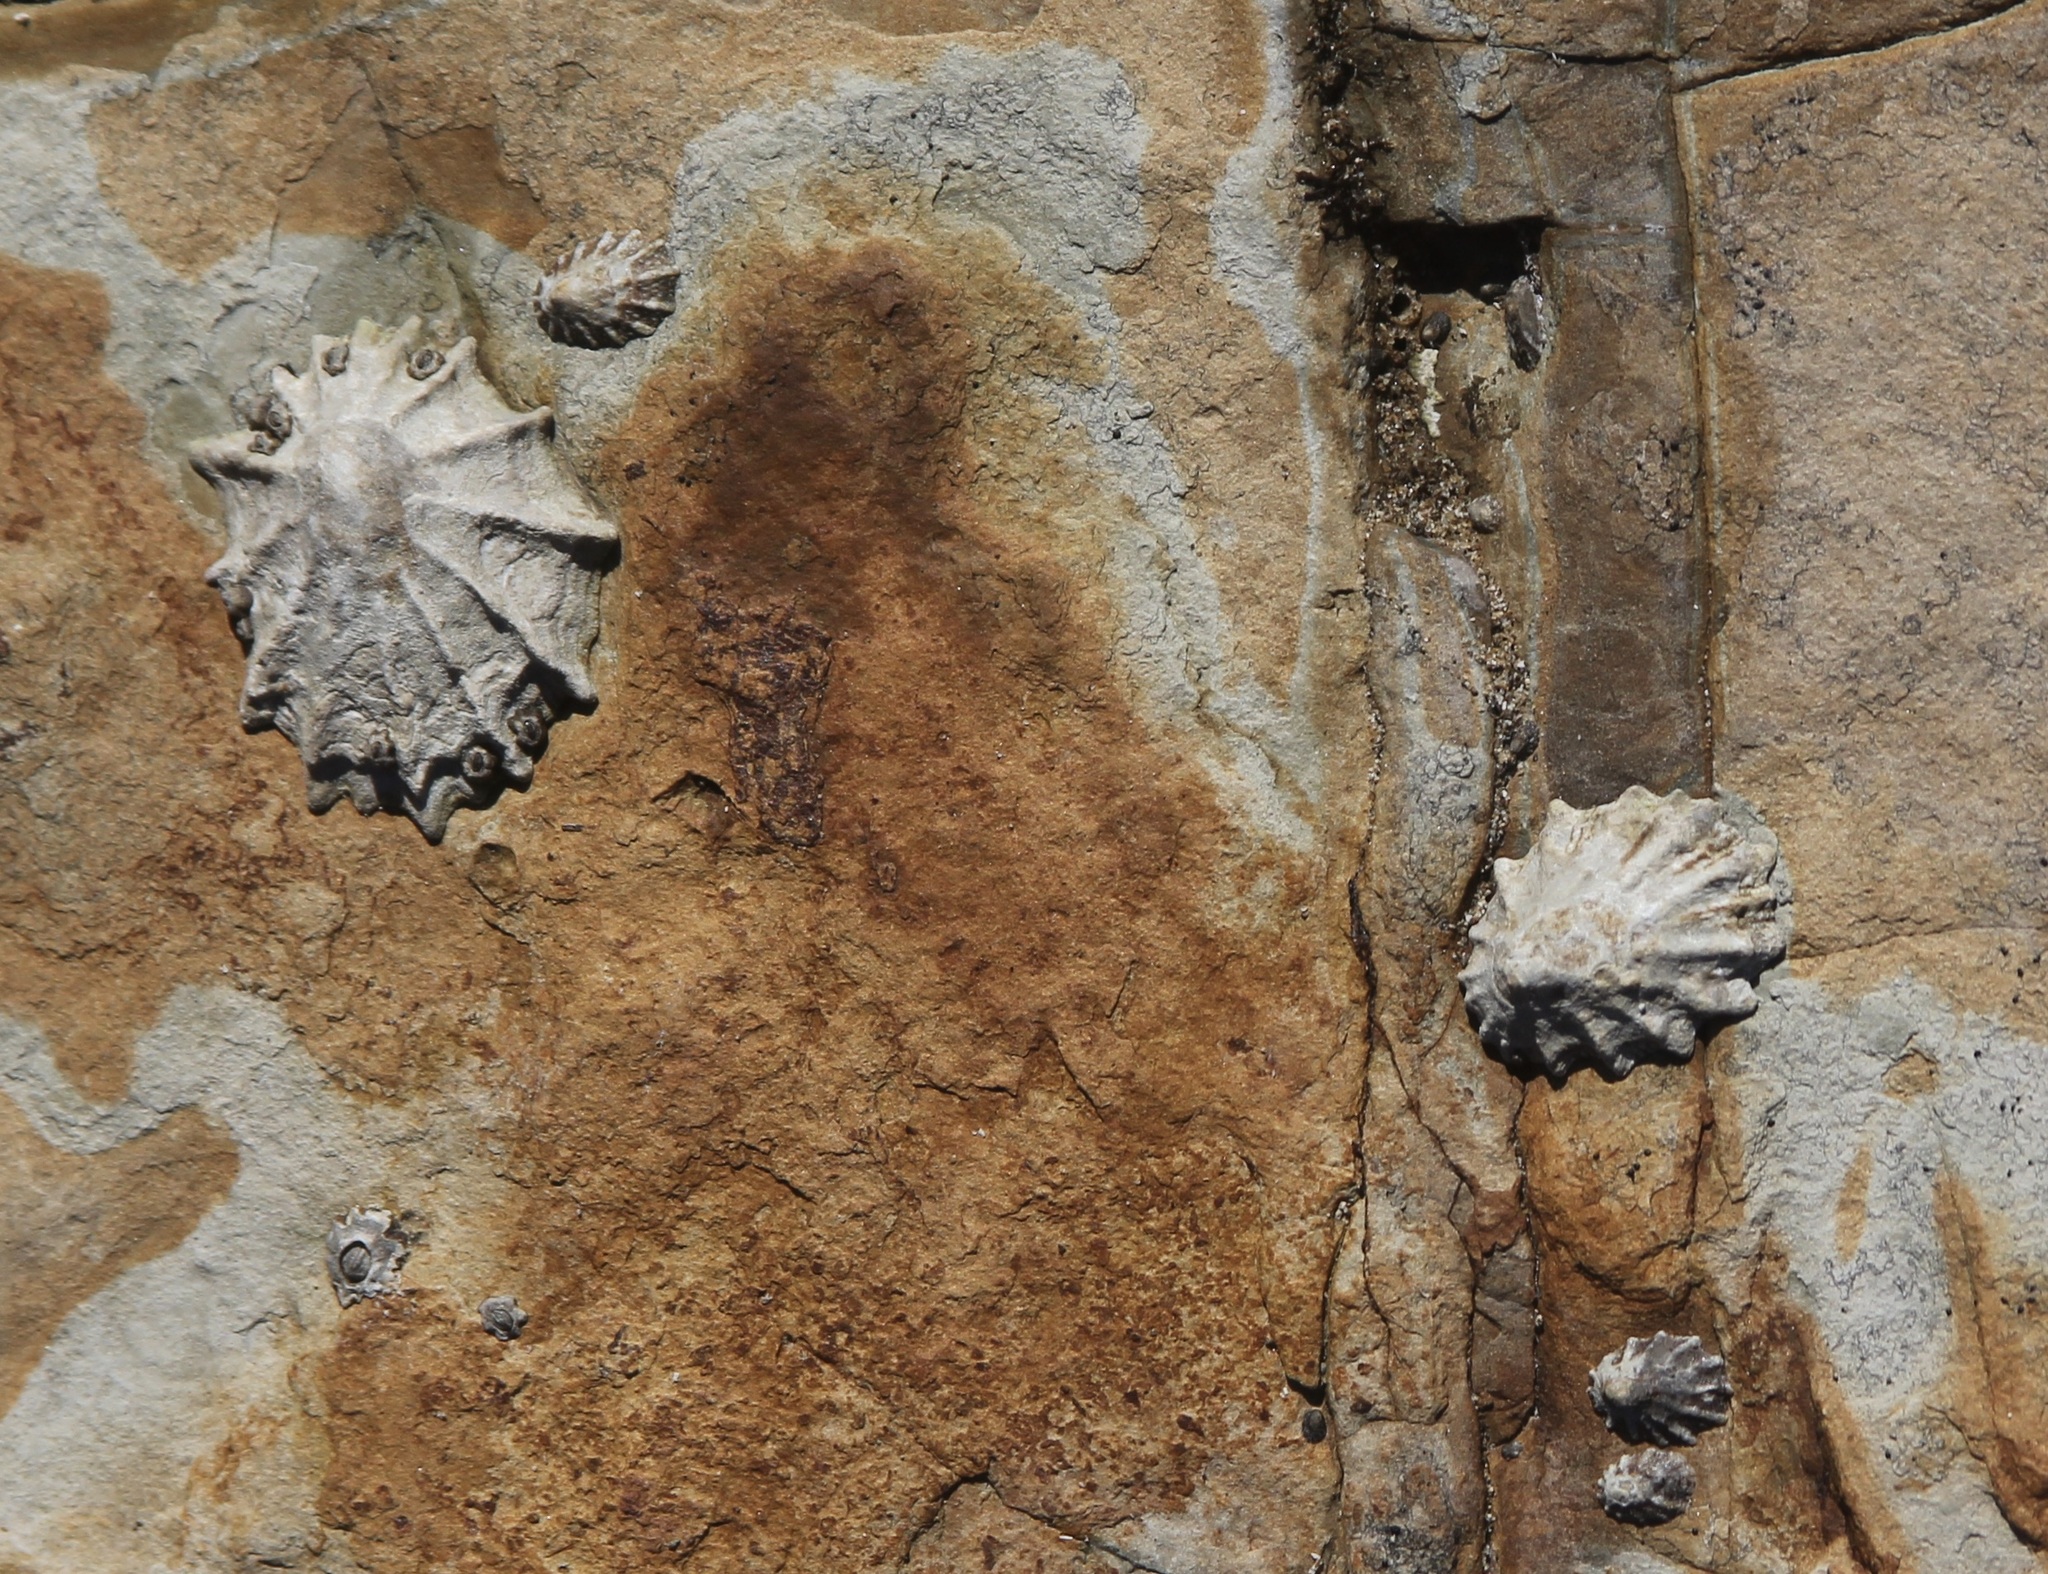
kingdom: Animalia
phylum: Mollusca
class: Gastropoda
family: Lottiidae
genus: Lottia
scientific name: Lottia scabra
